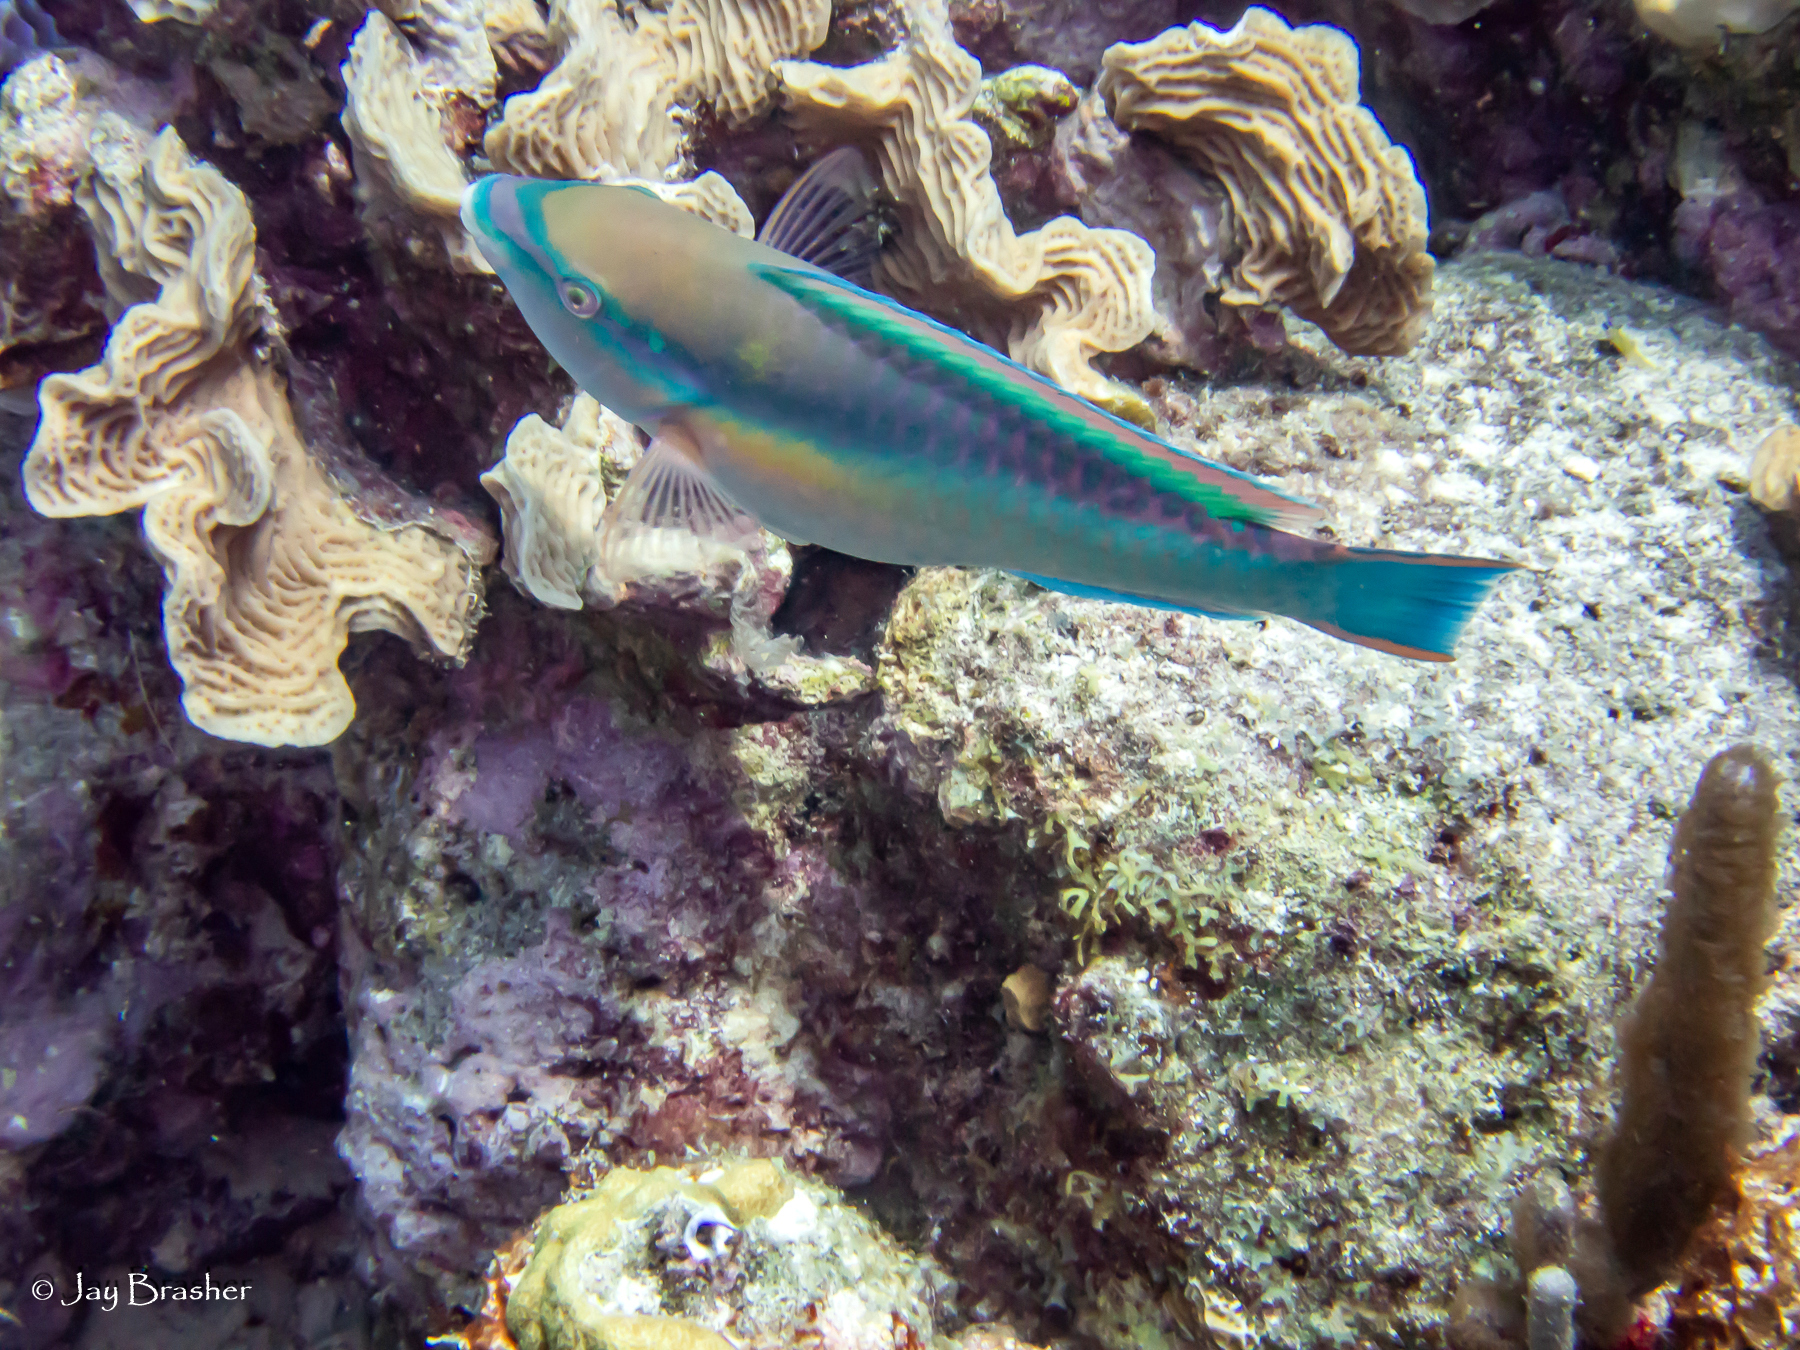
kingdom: Animalia
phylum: Chordata
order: Perciformes
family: Scaridae
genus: Scarus
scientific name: Scarus taeniopterus
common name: Princess parrotfish
